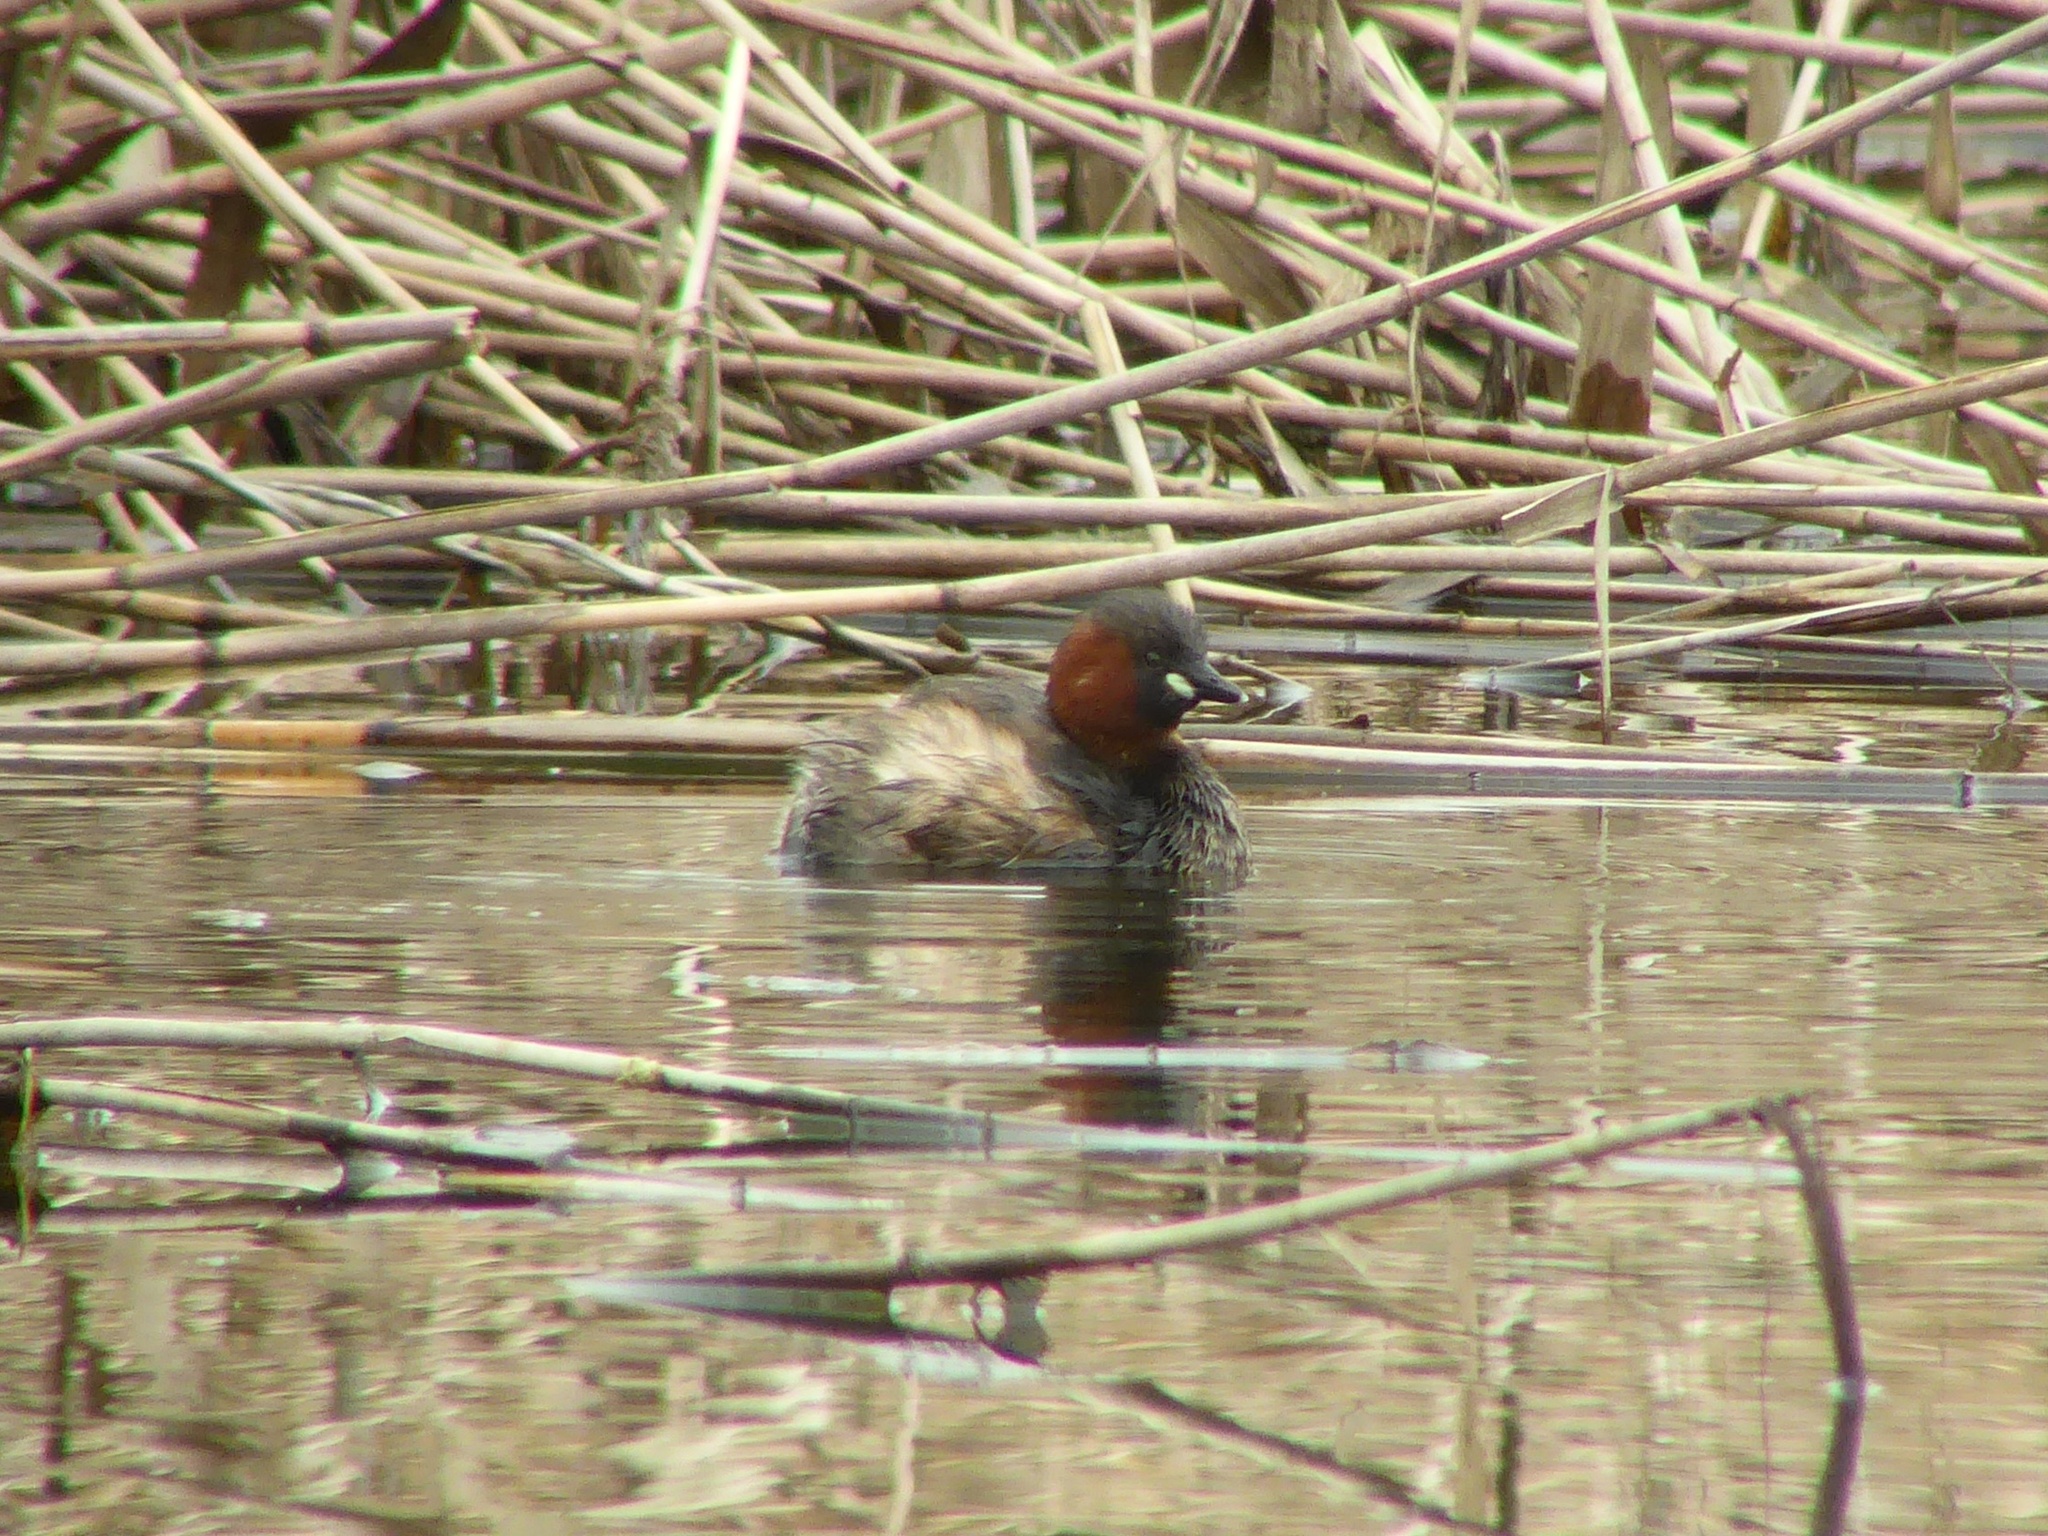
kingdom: Animalia
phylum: Chordata
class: Aves
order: Podicipediformes
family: Podicipedidae
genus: Tachybaptus
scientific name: Tachybaptus ruficollis
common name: Little grebe
